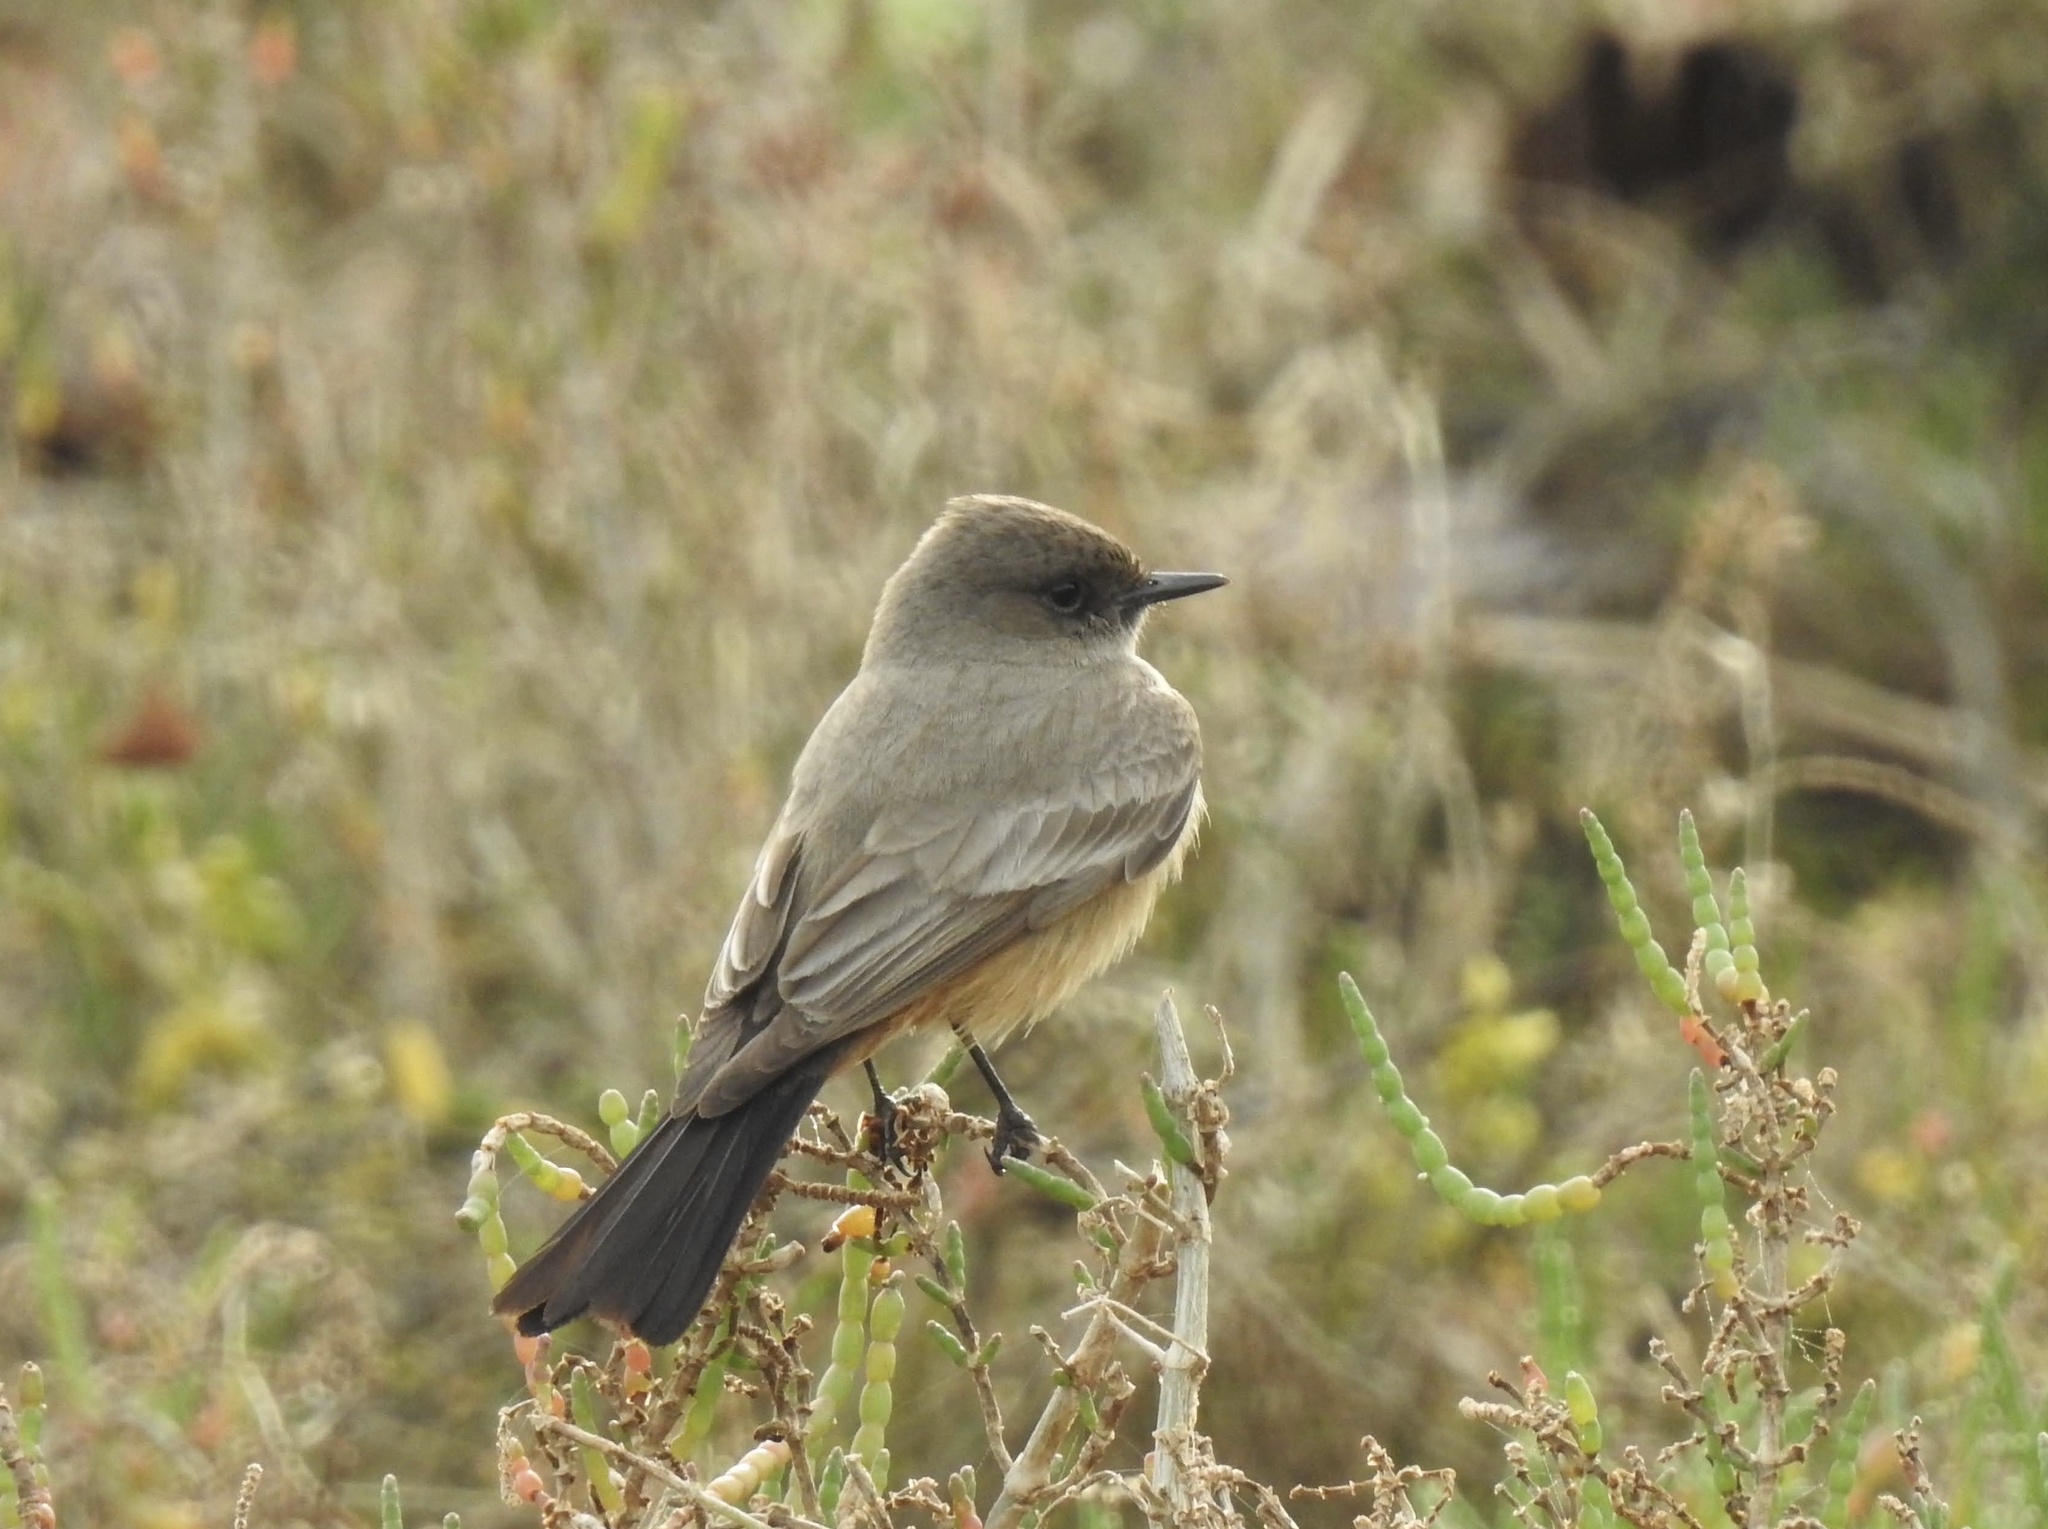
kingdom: Animalia
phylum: Chordata
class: Aves
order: Passeriformes
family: Tyrannidae
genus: Sayornis
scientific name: Sayornis saya
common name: Say's phoebe
